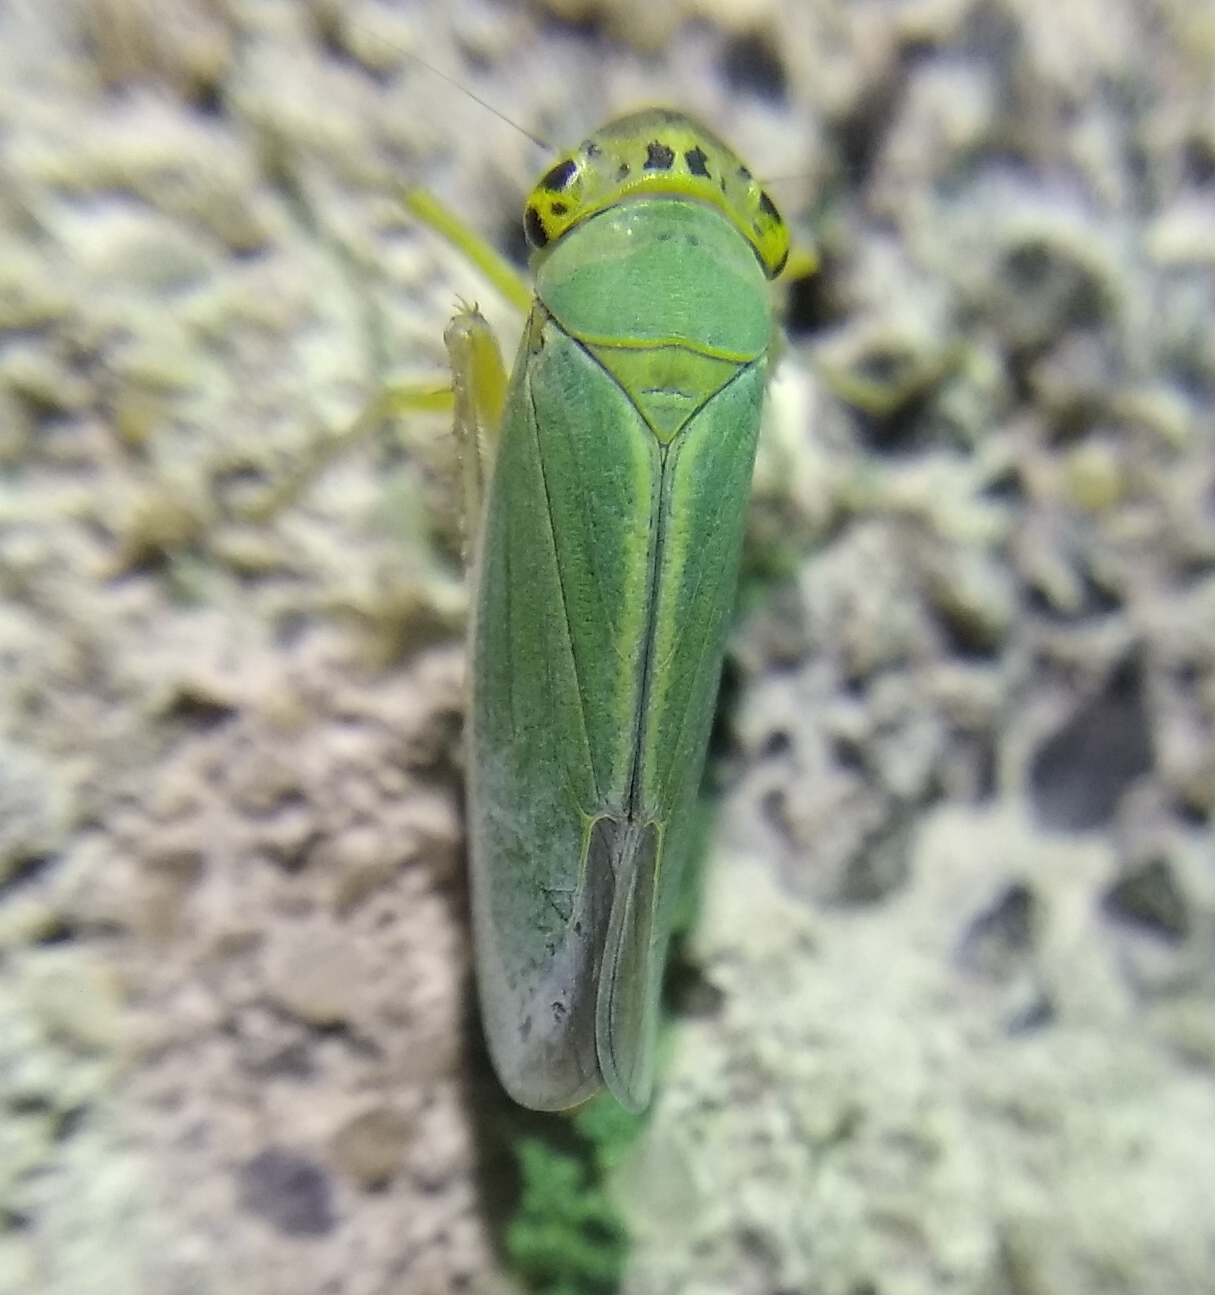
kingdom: Animalia
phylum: Arthropoda
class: Insecta
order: Hemiptera
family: Cicadellidae
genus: Cicadella
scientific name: Cicadella viridis
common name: Leafhopper
